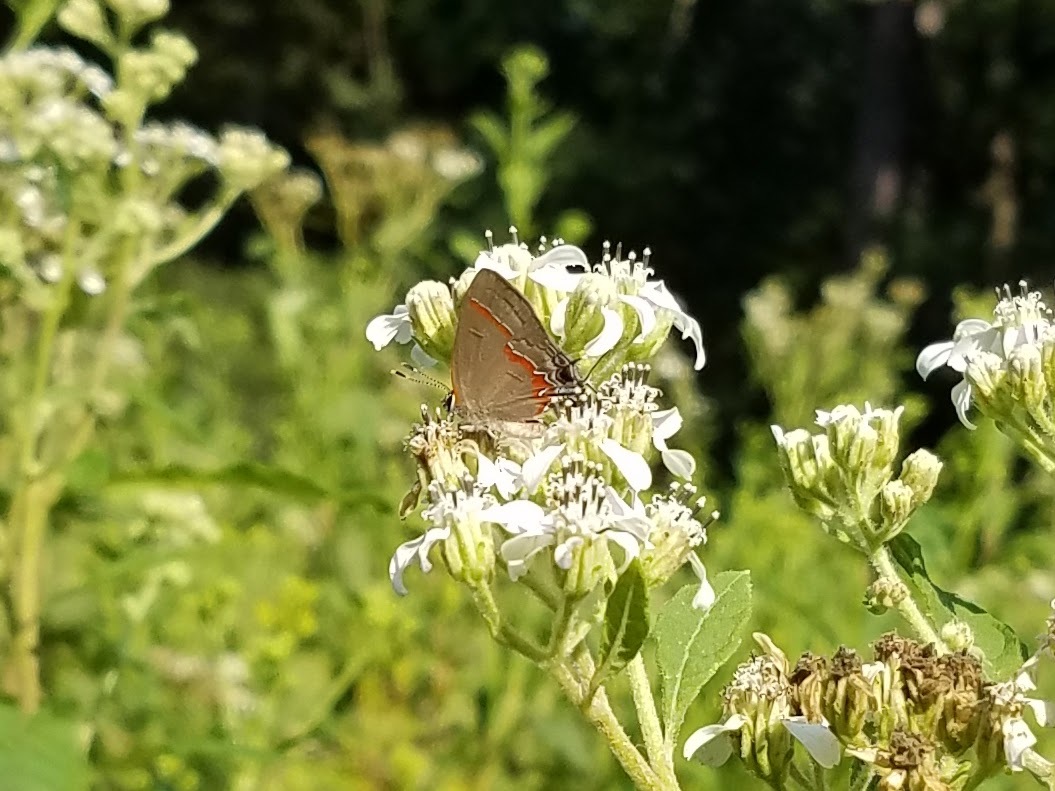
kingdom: Animalia
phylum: Arthropoda
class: Insecta
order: Lepidoptera
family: Lycaenidae
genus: Calycopis
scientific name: Calycopis cecrops
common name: Red-banded hairstreak
